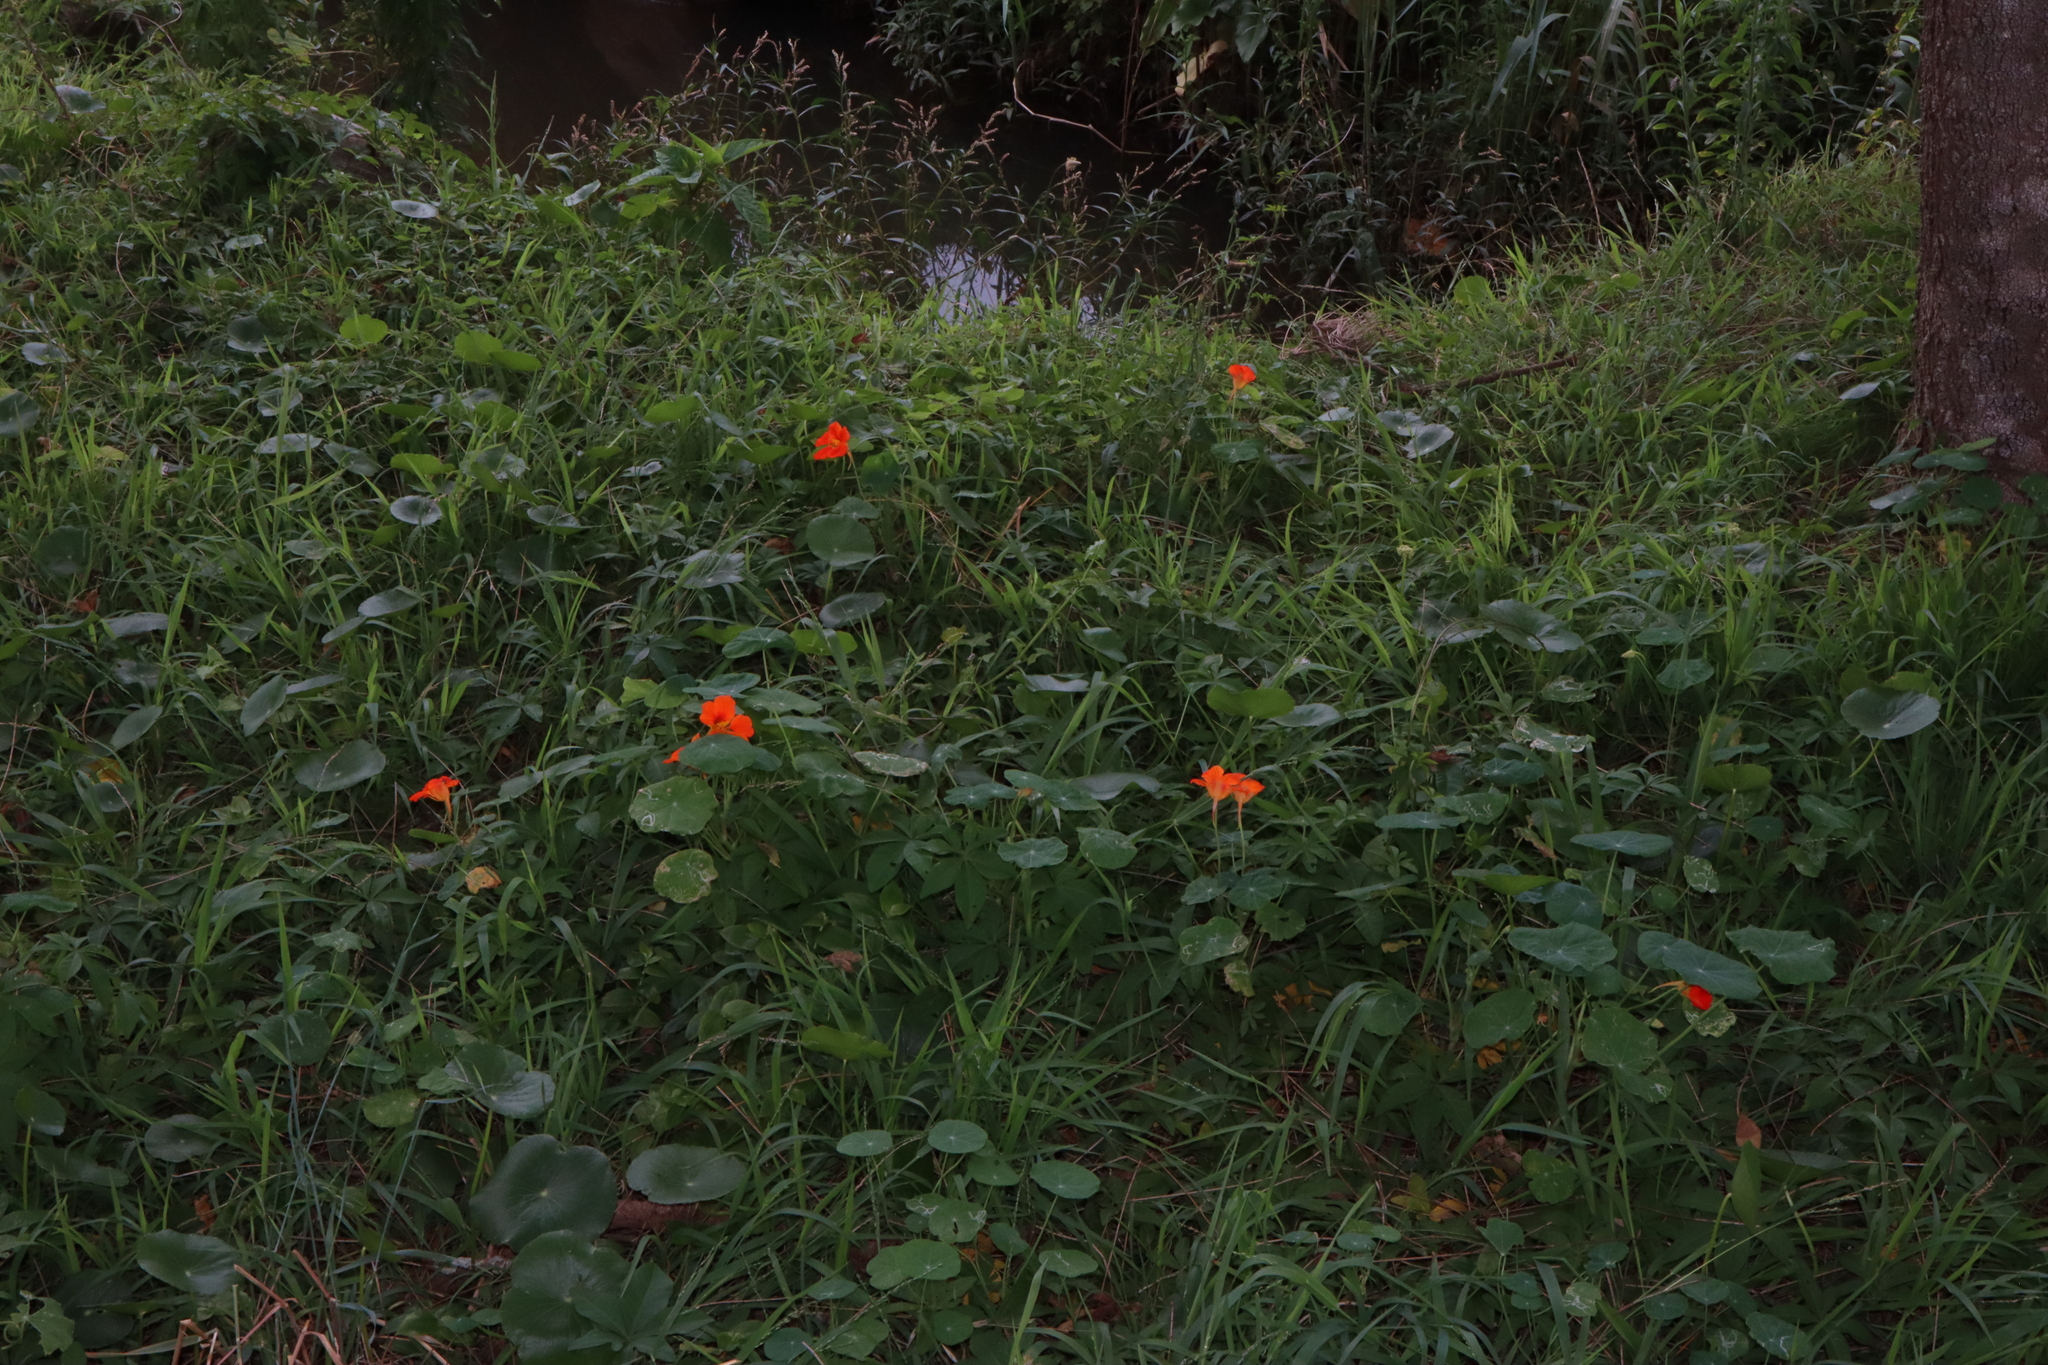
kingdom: Plantae
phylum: Tracheophyta
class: Magnoliopsida
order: Brassicales
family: Tropaeolaceae
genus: Tropaeolum
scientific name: Tropaeolum majus
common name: Nasturtium
